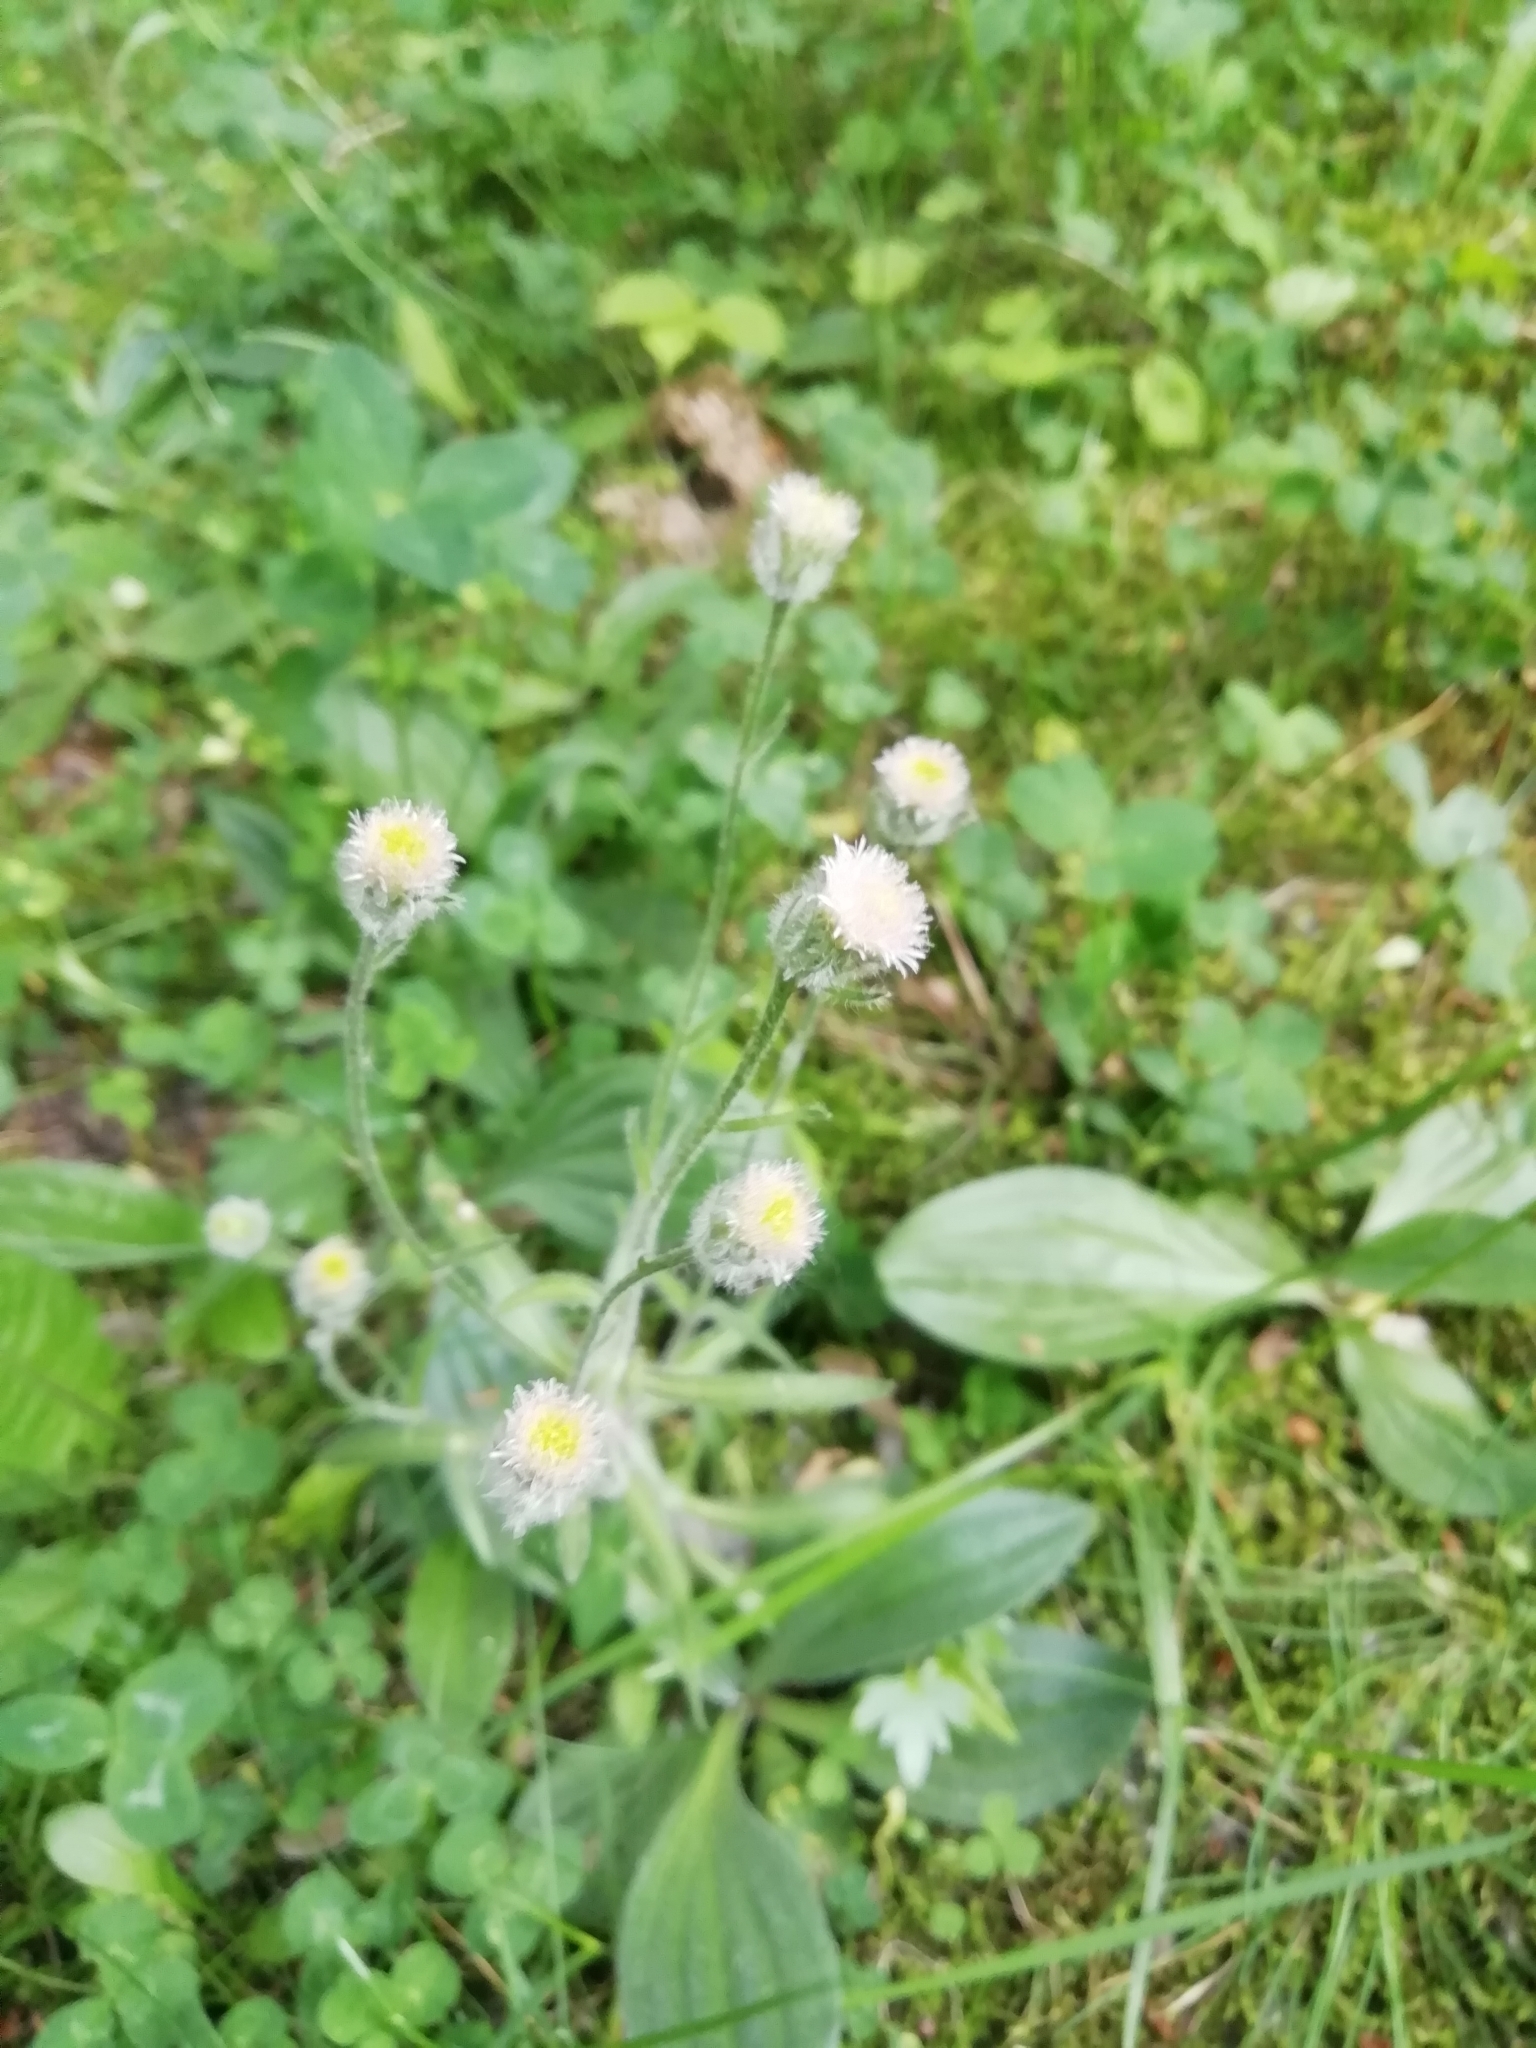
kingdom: Plantae
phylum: Tracheophyta
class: Magnoliopsida
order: Asterales
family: Asteraceae
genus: Erigeron
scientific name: Erigeron acris
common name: Blue fleabane
